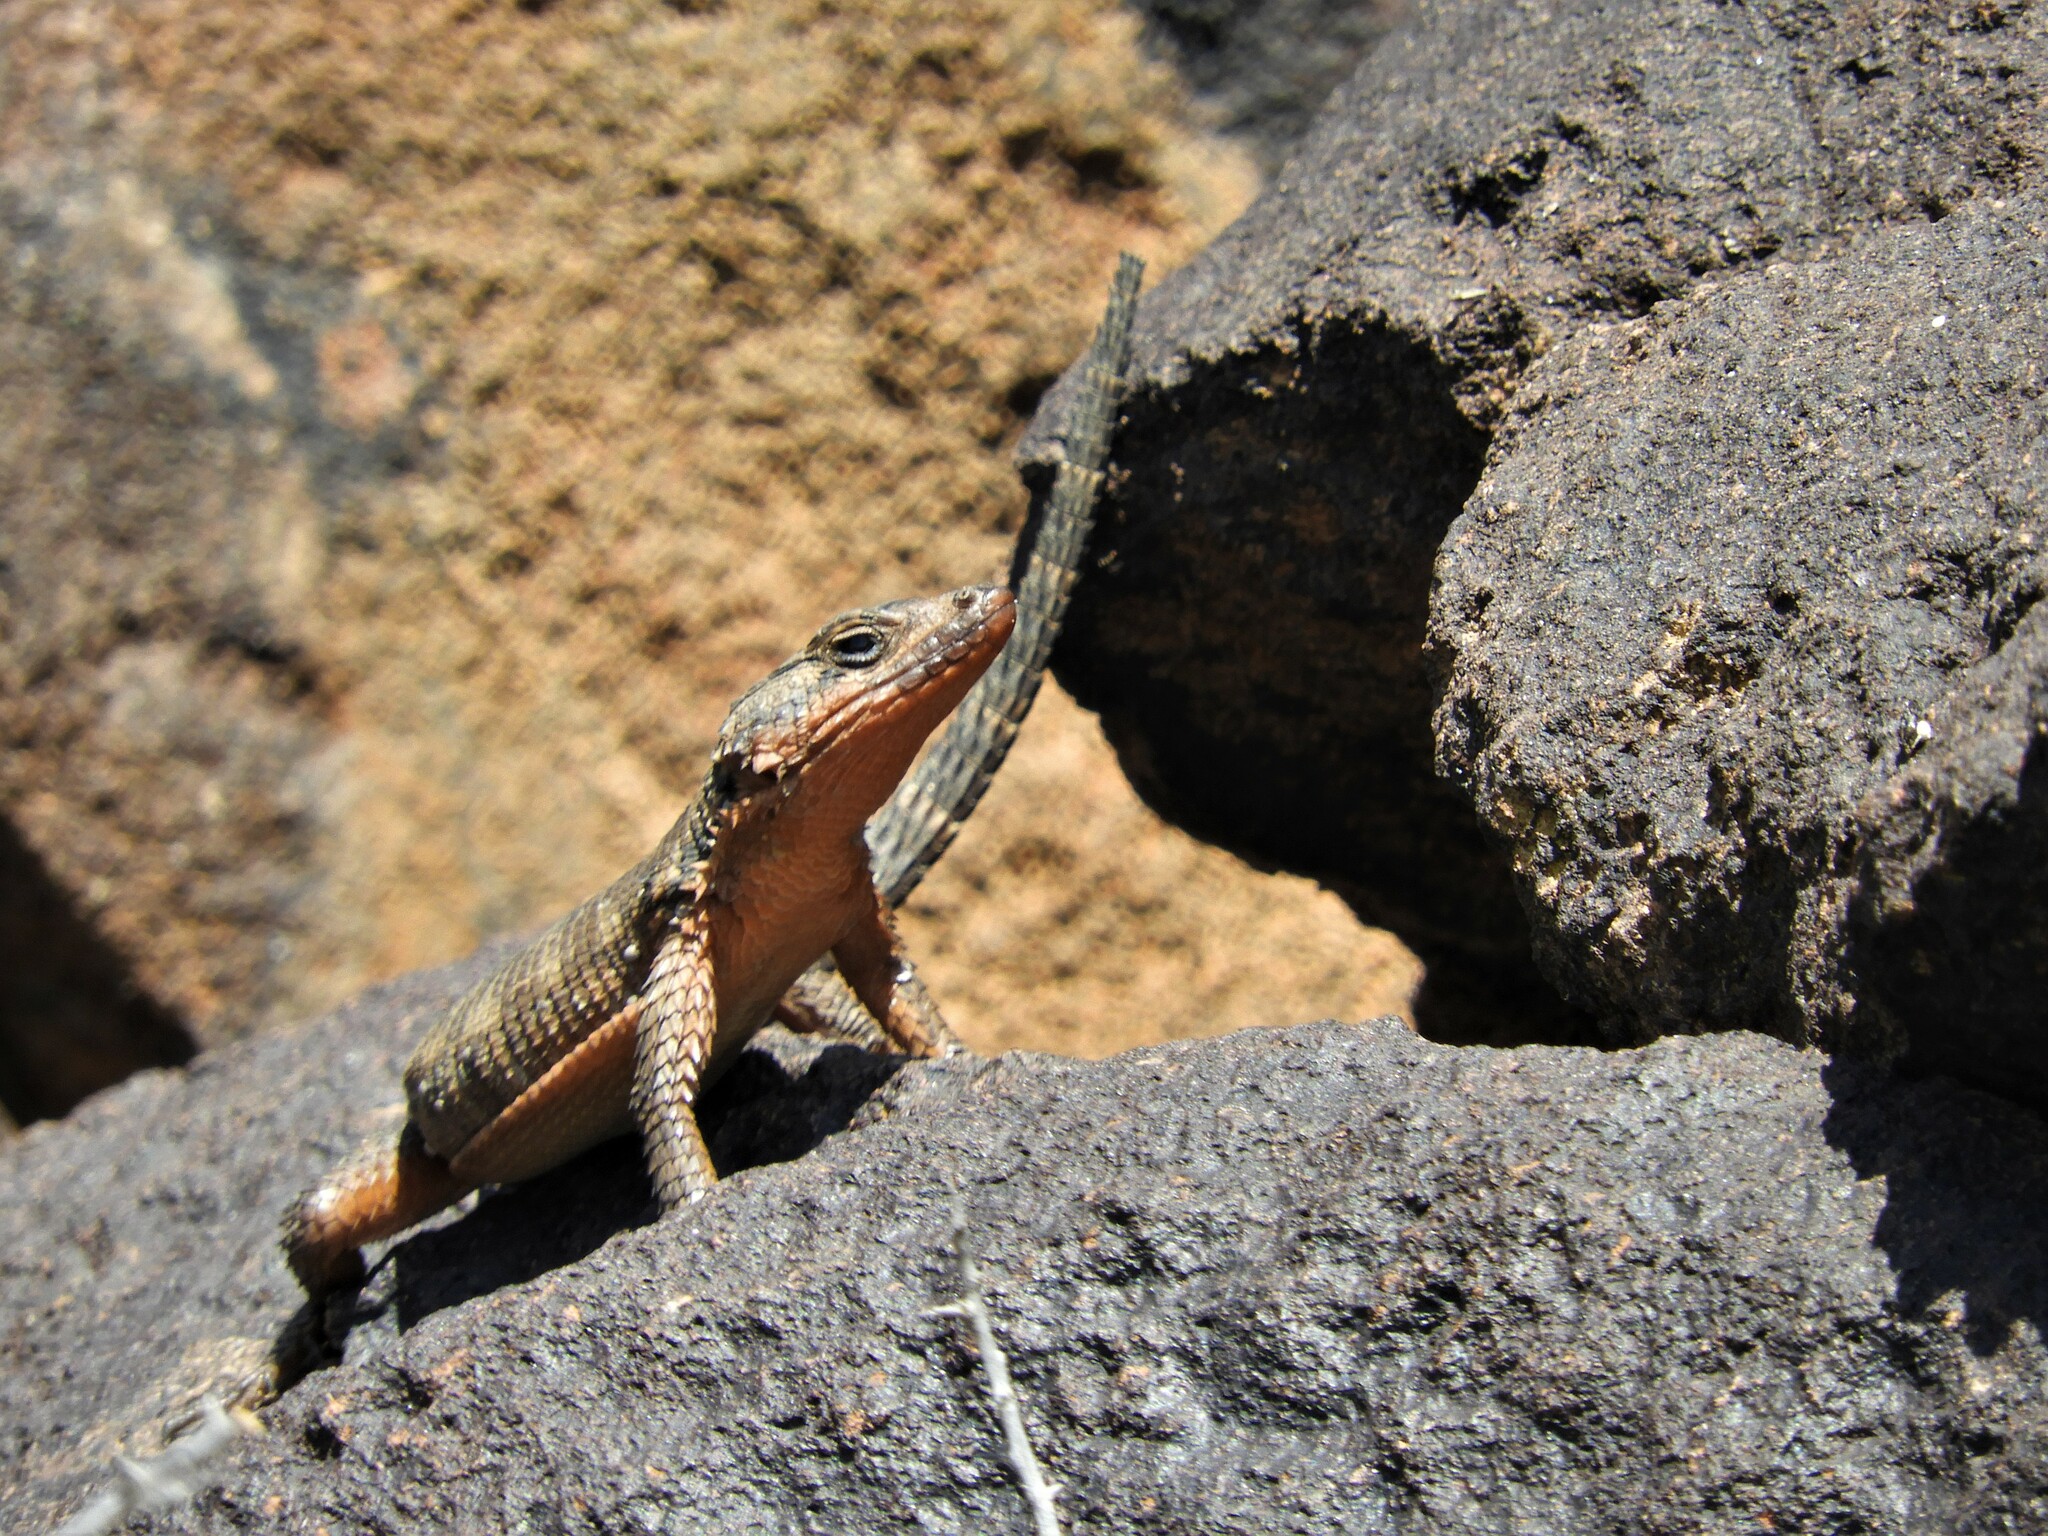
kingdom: Animalia
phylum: Chordata
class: Squamata
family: Cordylidae
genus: Karusasaurus
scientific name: Karusasaurus polyzonus
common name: Karoo girdled lizard
